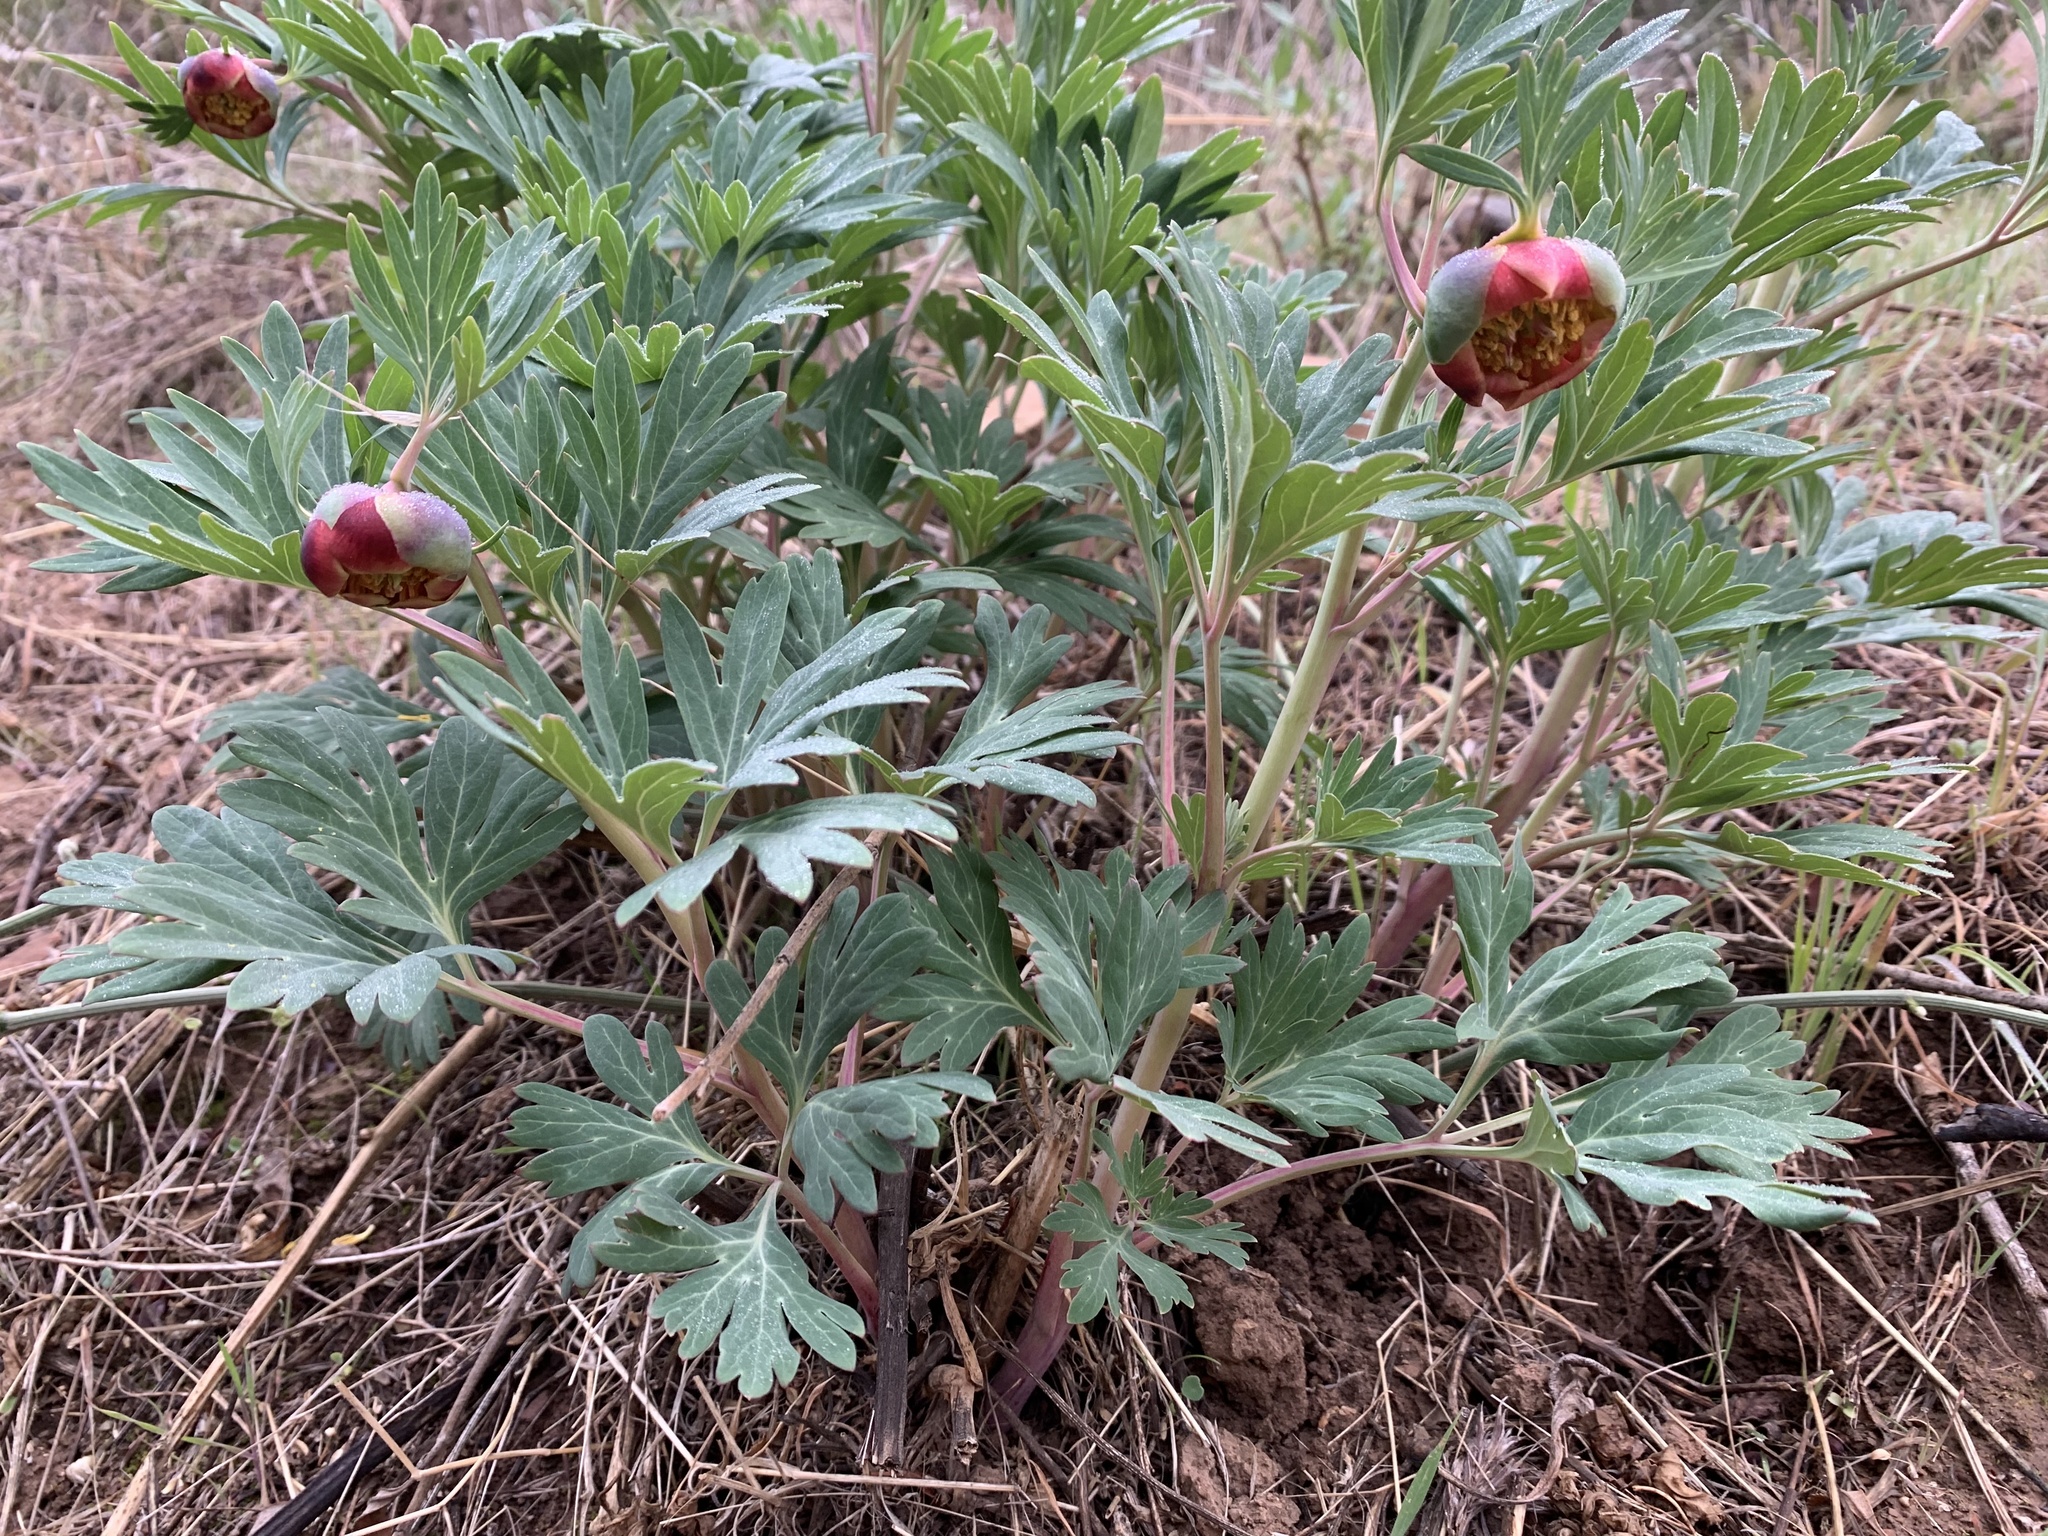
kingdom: Plantae
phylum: Tracheophyta
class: Magnoliopsida
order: Saxifragales
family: Paeoniaceae
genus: Paeonia
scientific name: Paeonia californica
